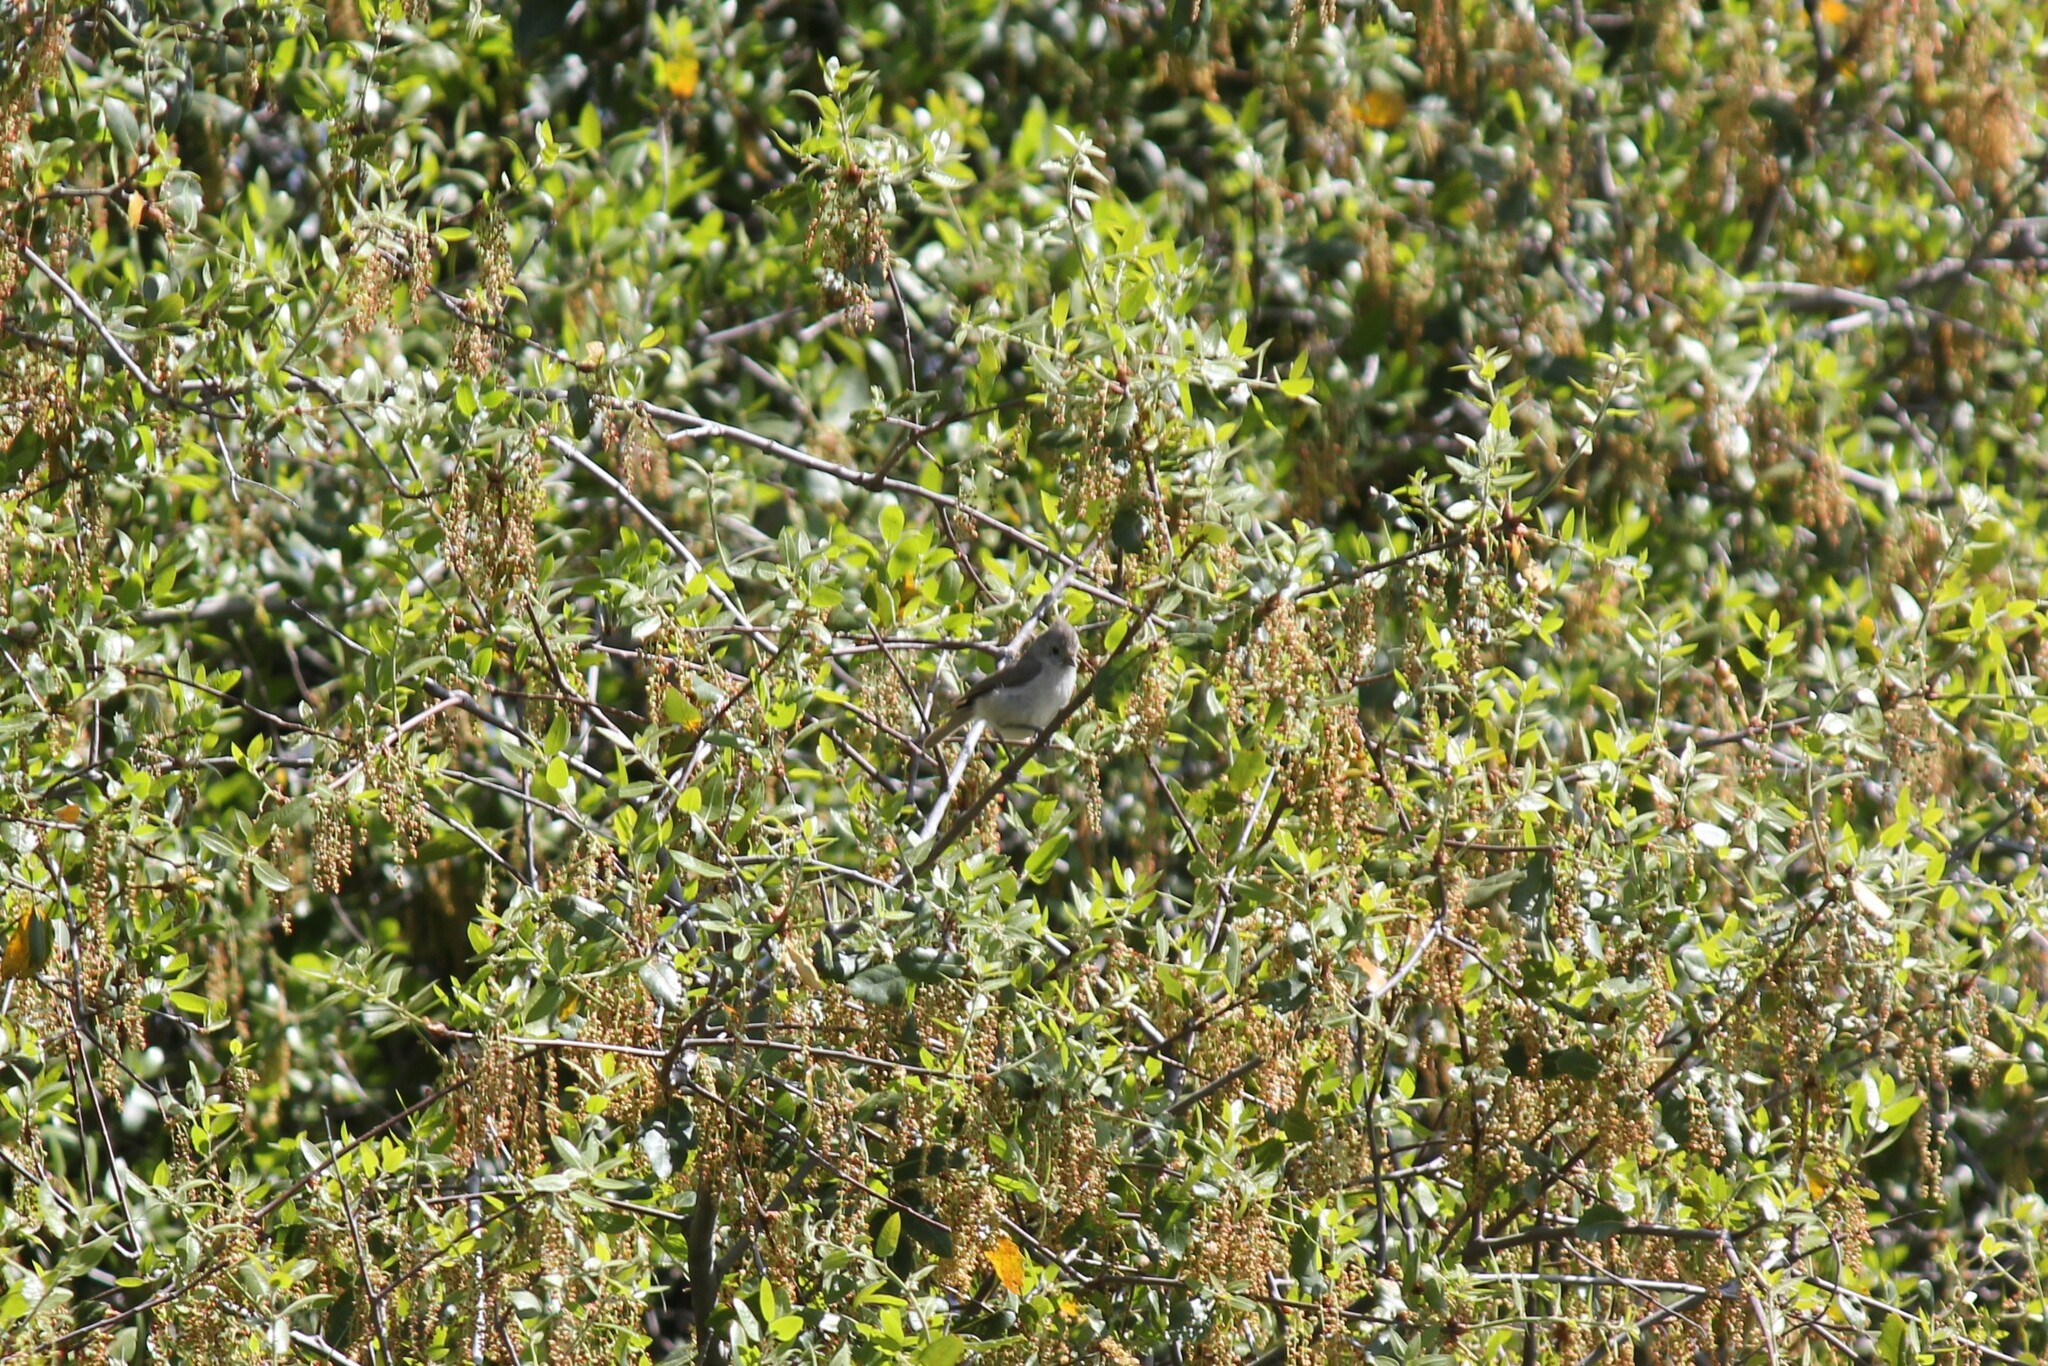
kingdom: Animalia
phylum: Chordata
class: Aves
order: Passeriformes
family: Paridae
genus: Baeolophus
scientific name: Baeolophus inornatus
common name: Oak titmouse
